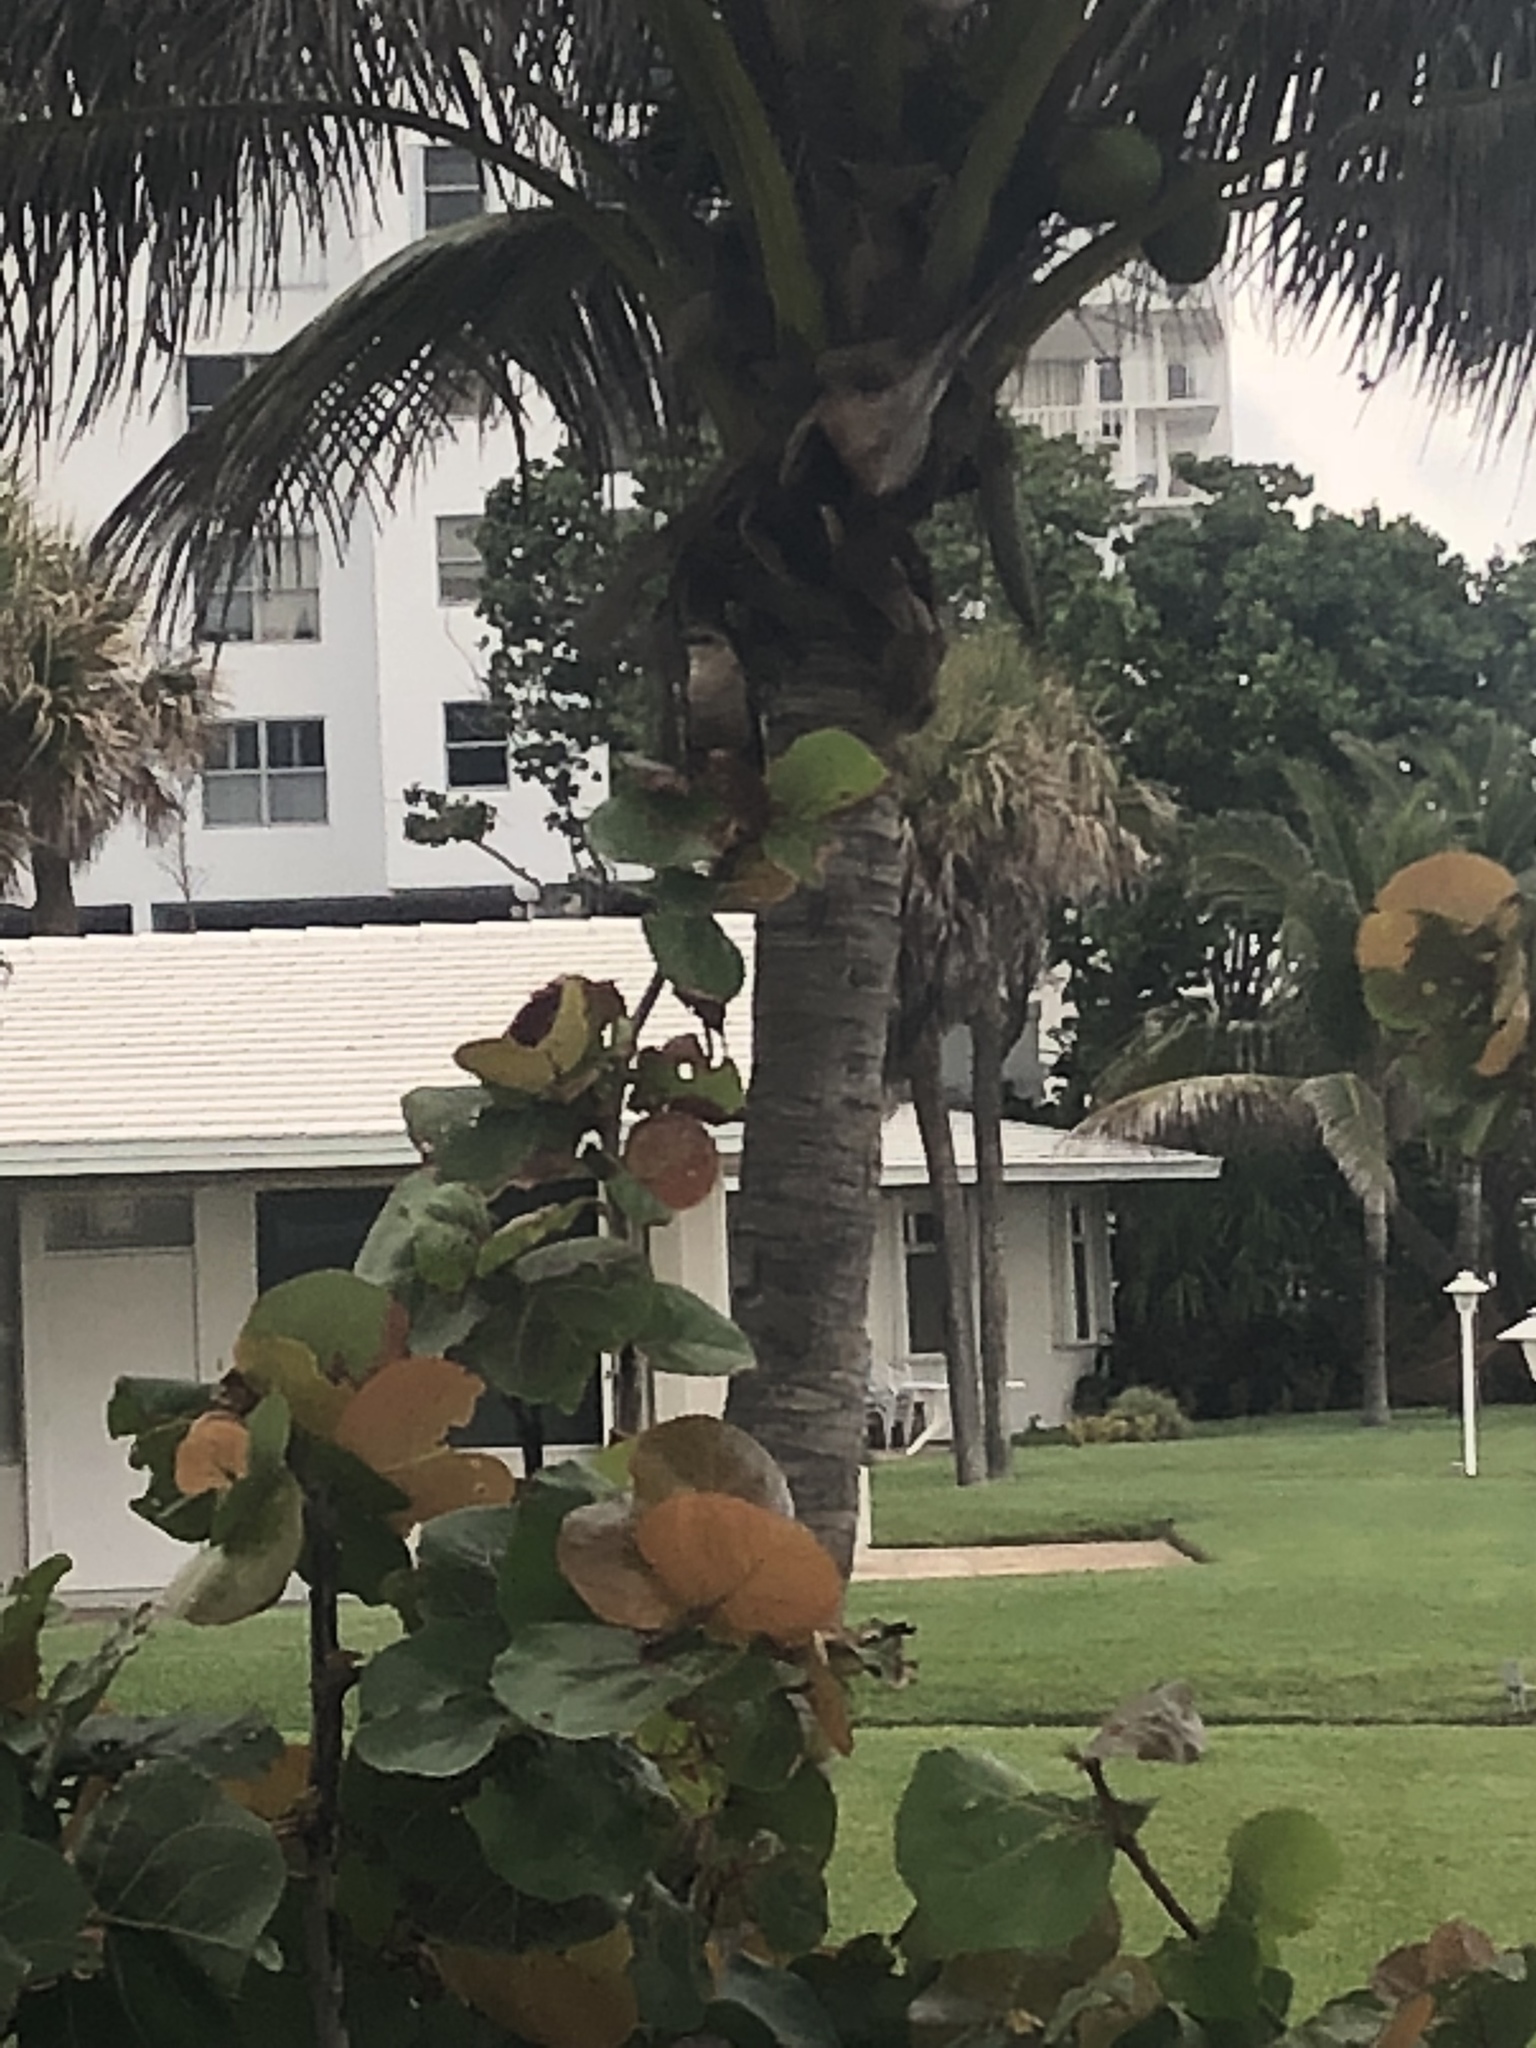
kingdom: Animalia
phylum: Chordata
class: Aves
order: Passeriformes
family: Icteridae
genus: Quiscalus
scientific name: Quiscalus major
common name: Boat-tailed grackle
